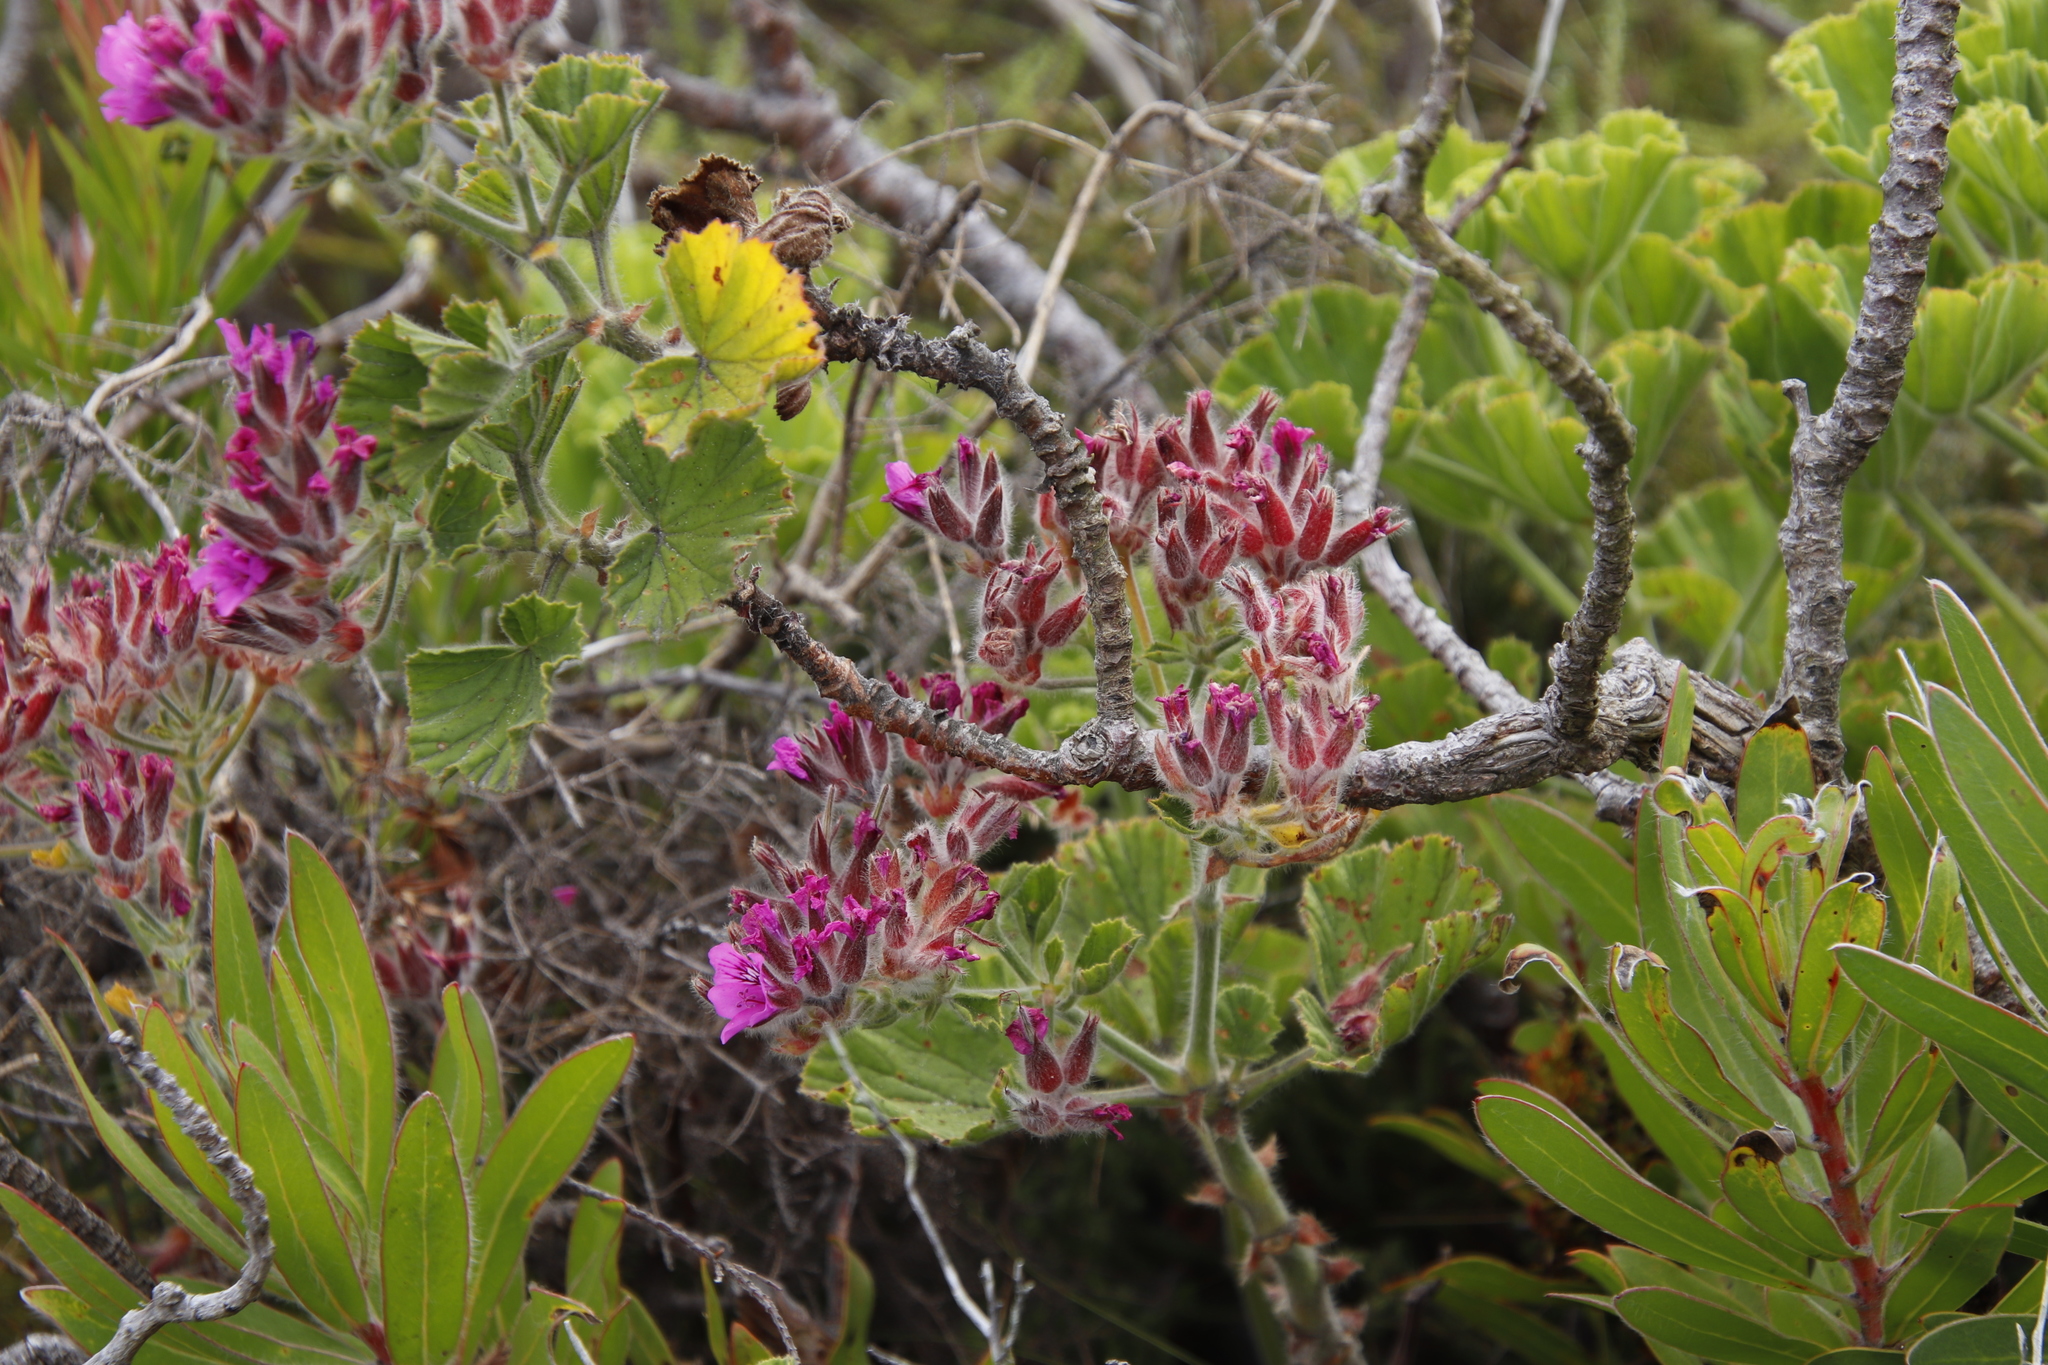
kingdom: Plantae
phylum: Tracheophyta
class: Magnoliopsida
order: Geraniales
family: Geraniaceae
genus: Pelargonium
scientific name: Pelargonium cucullatum
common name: Tree pelargonium
